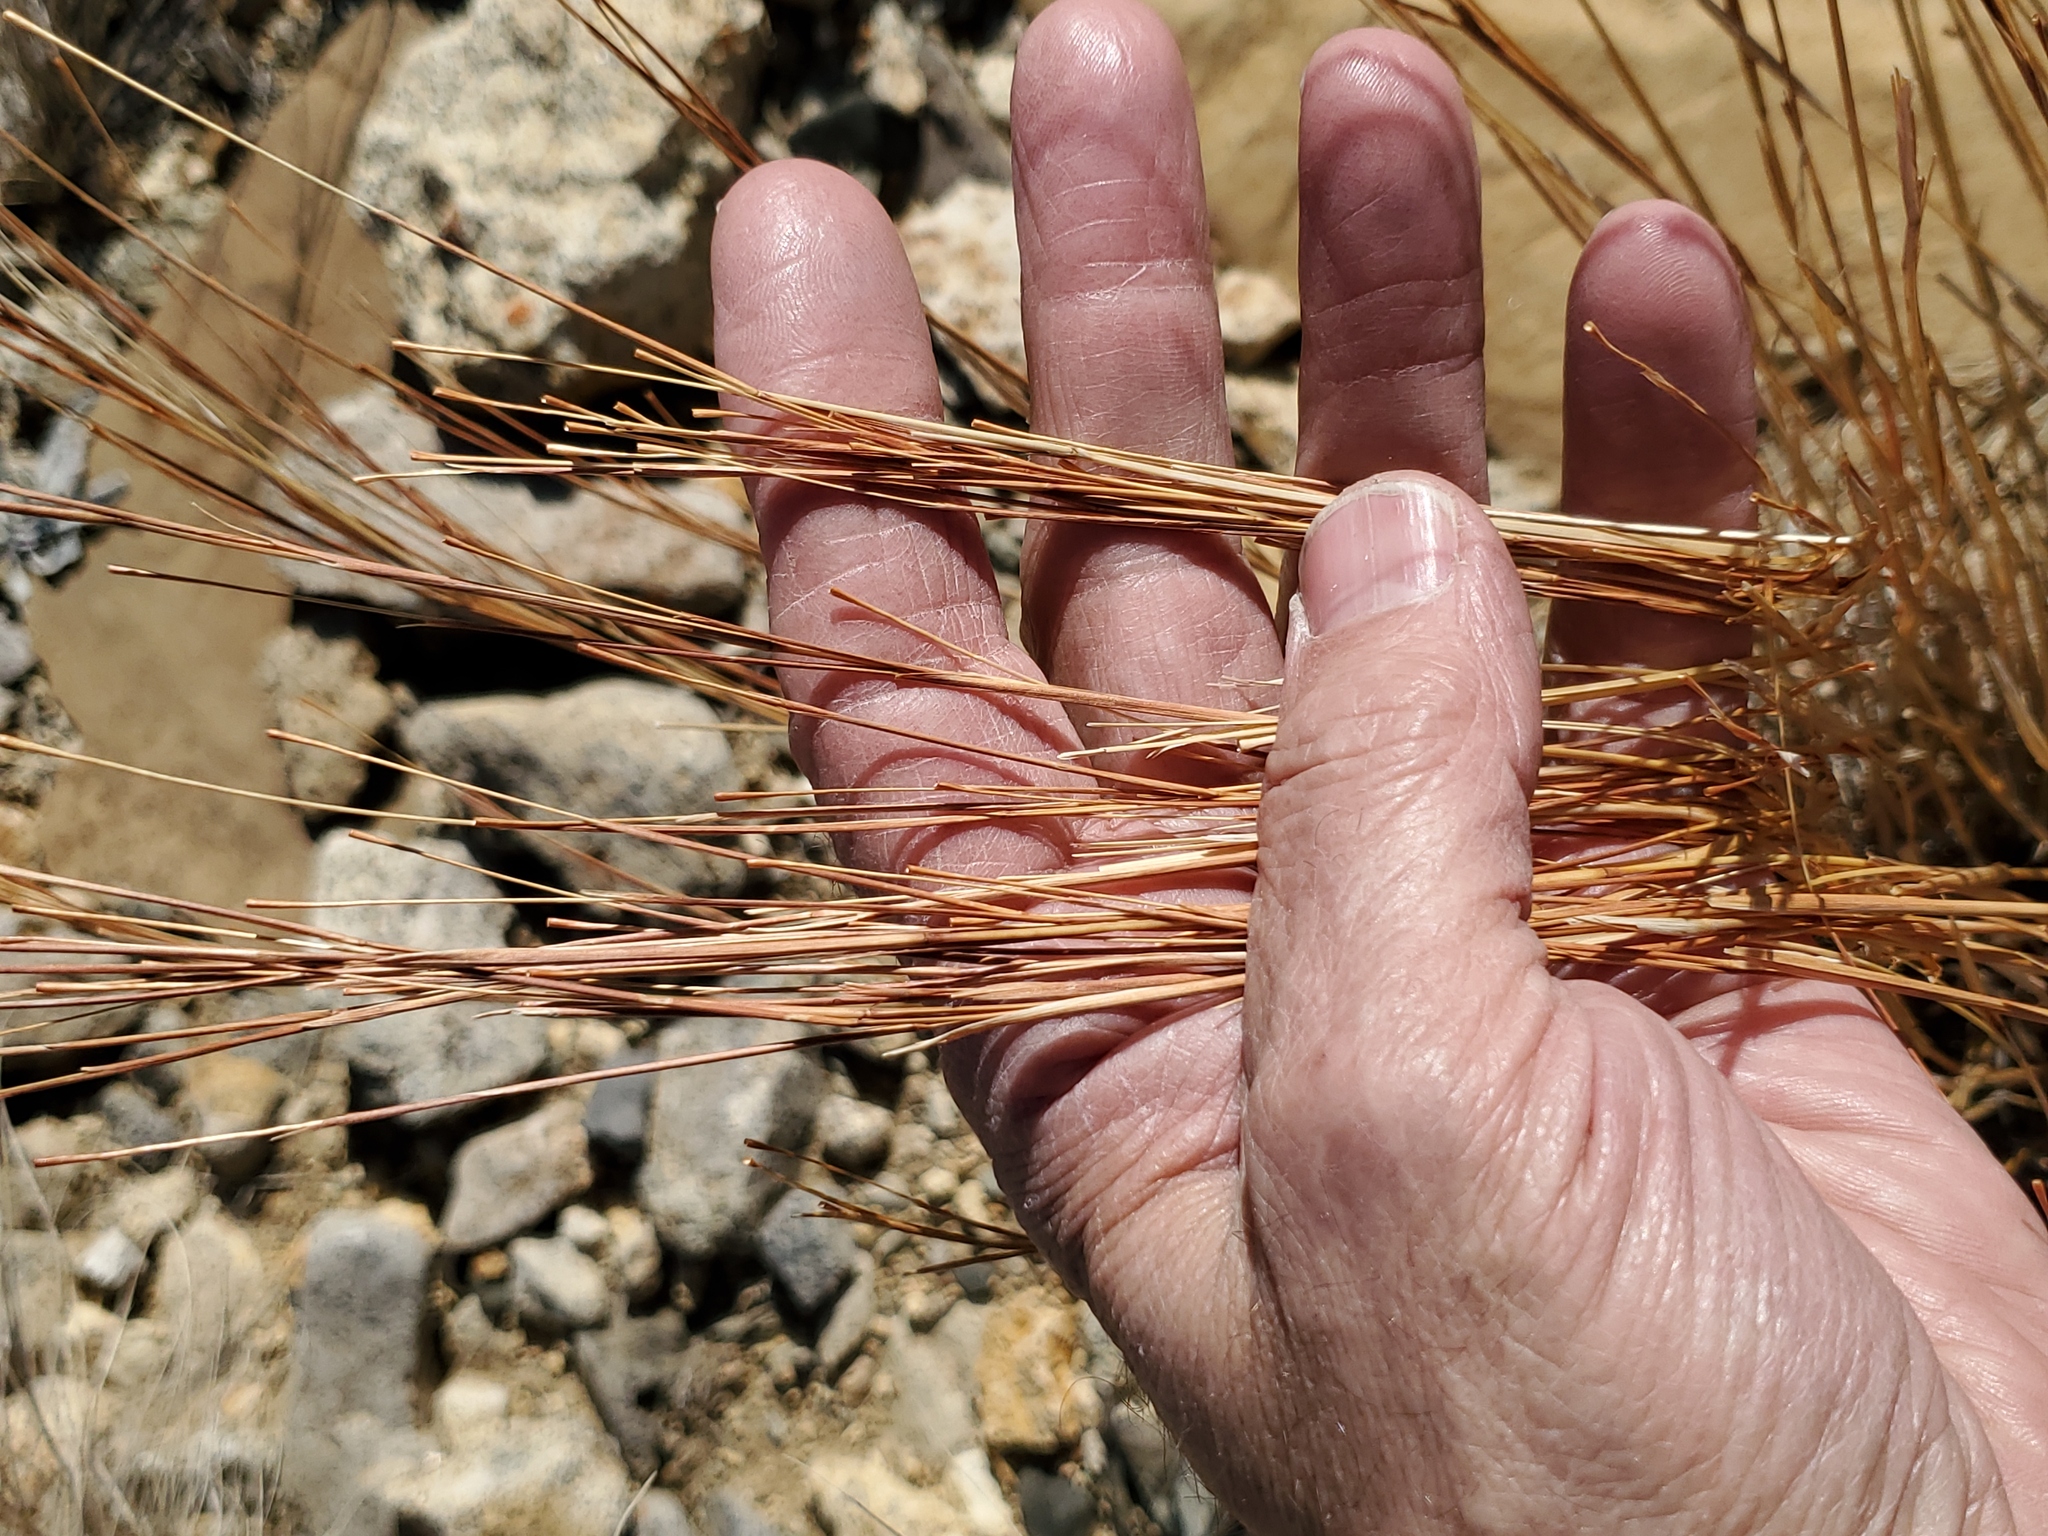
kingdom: Plantae
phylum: Tracheophyta
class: Liliopsida
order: Poales
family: Poaceae
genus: Schizachyrium
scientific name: Schizachyrium scoparium
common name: Little bluestem
